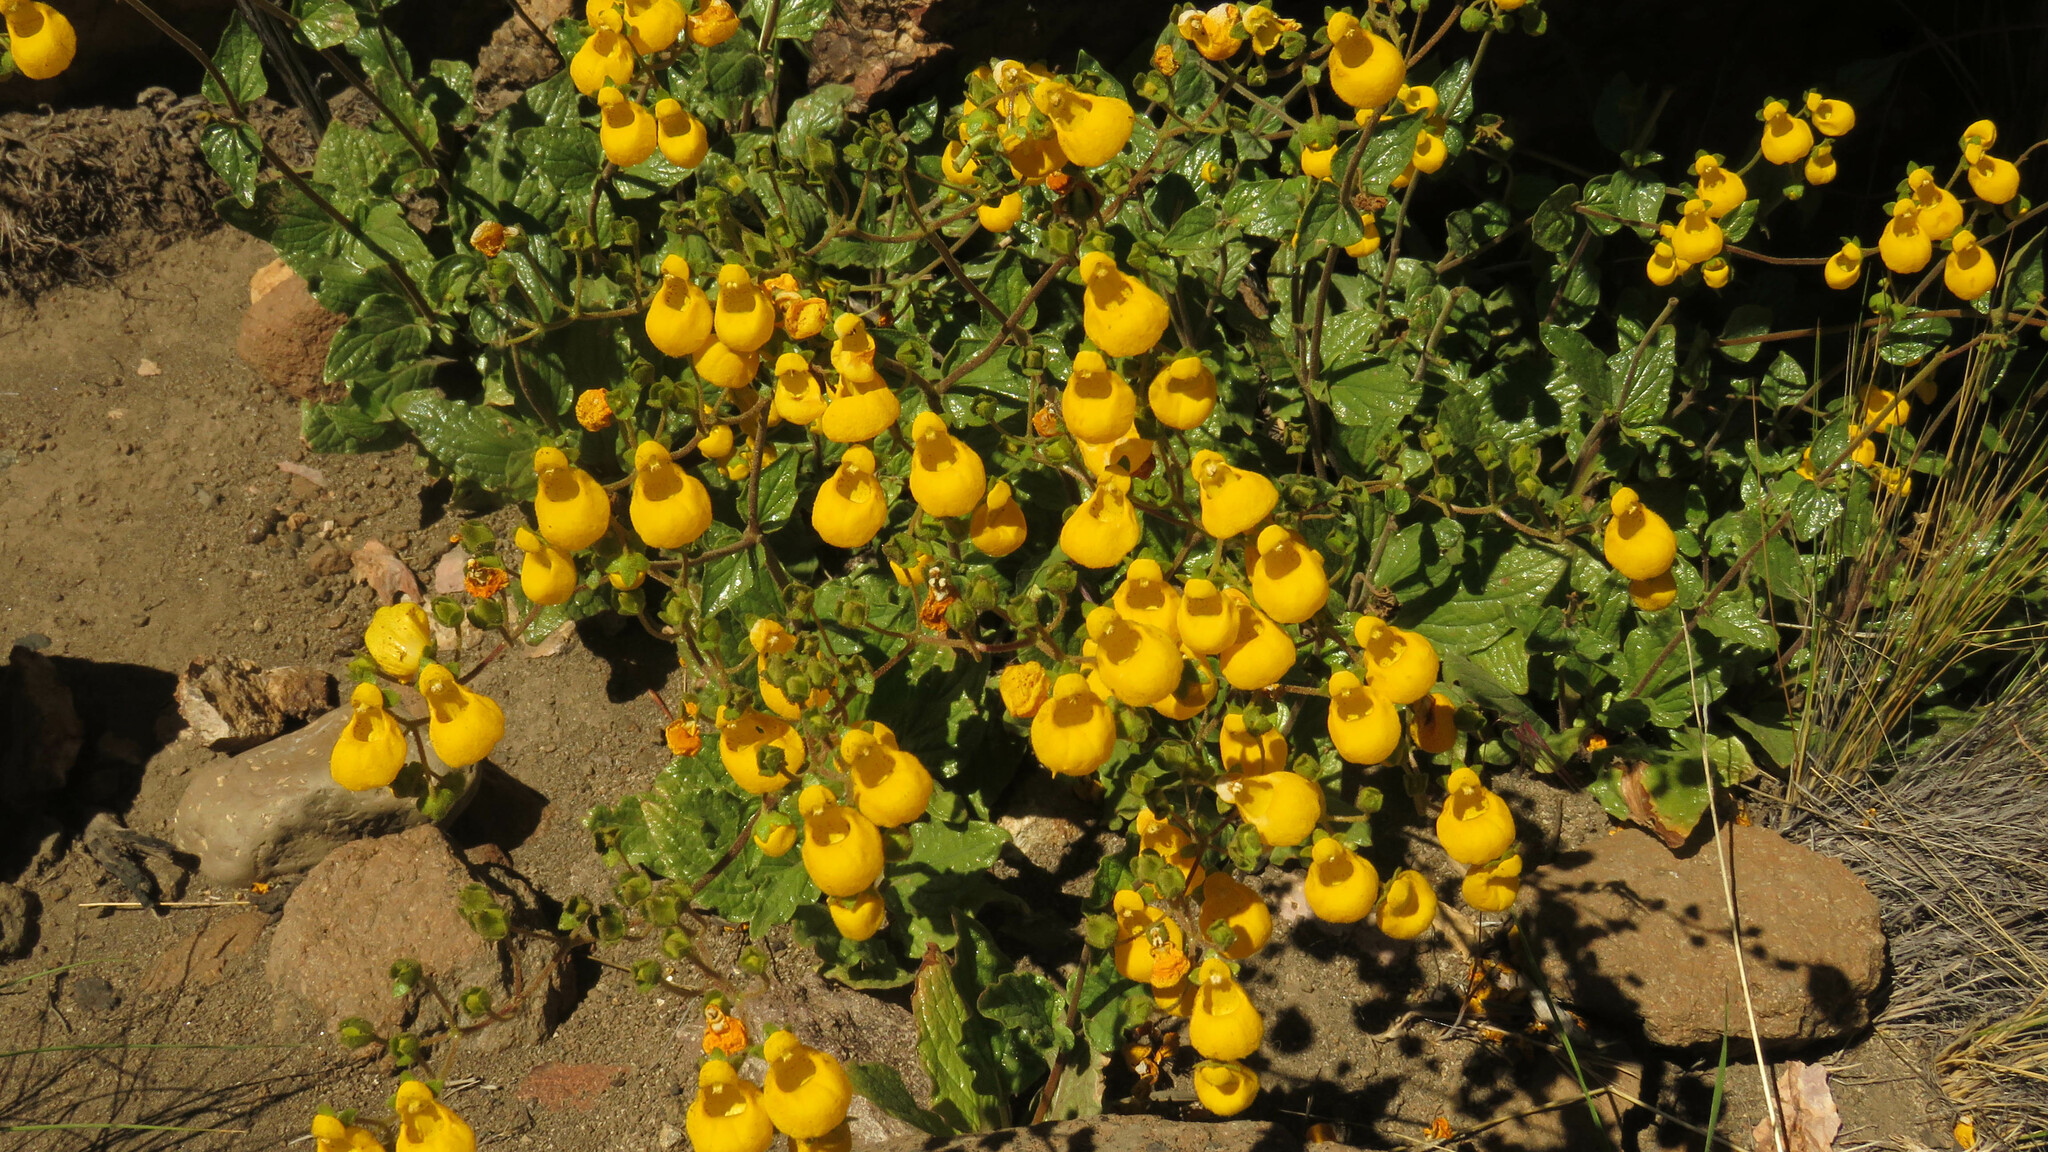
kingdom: Plantae
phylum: Tracheophyta
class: Magnoliopsida
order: Lamiales
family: Calceolariaceae
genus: Calceolaria
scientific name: Calceolaria germainii
